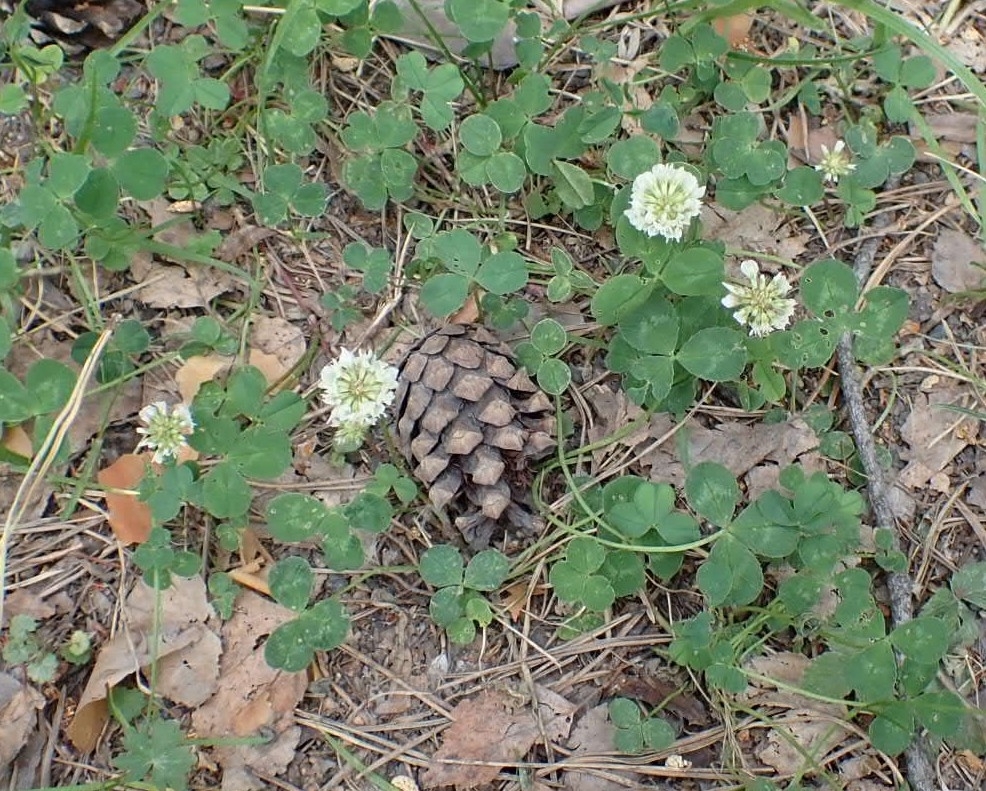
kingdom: Plantae
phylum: Tracheophyta
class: Magnoliopsida
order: Fabales
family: Fabaceae
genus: Trifolium
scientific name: Trifolium repens
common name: White clover
